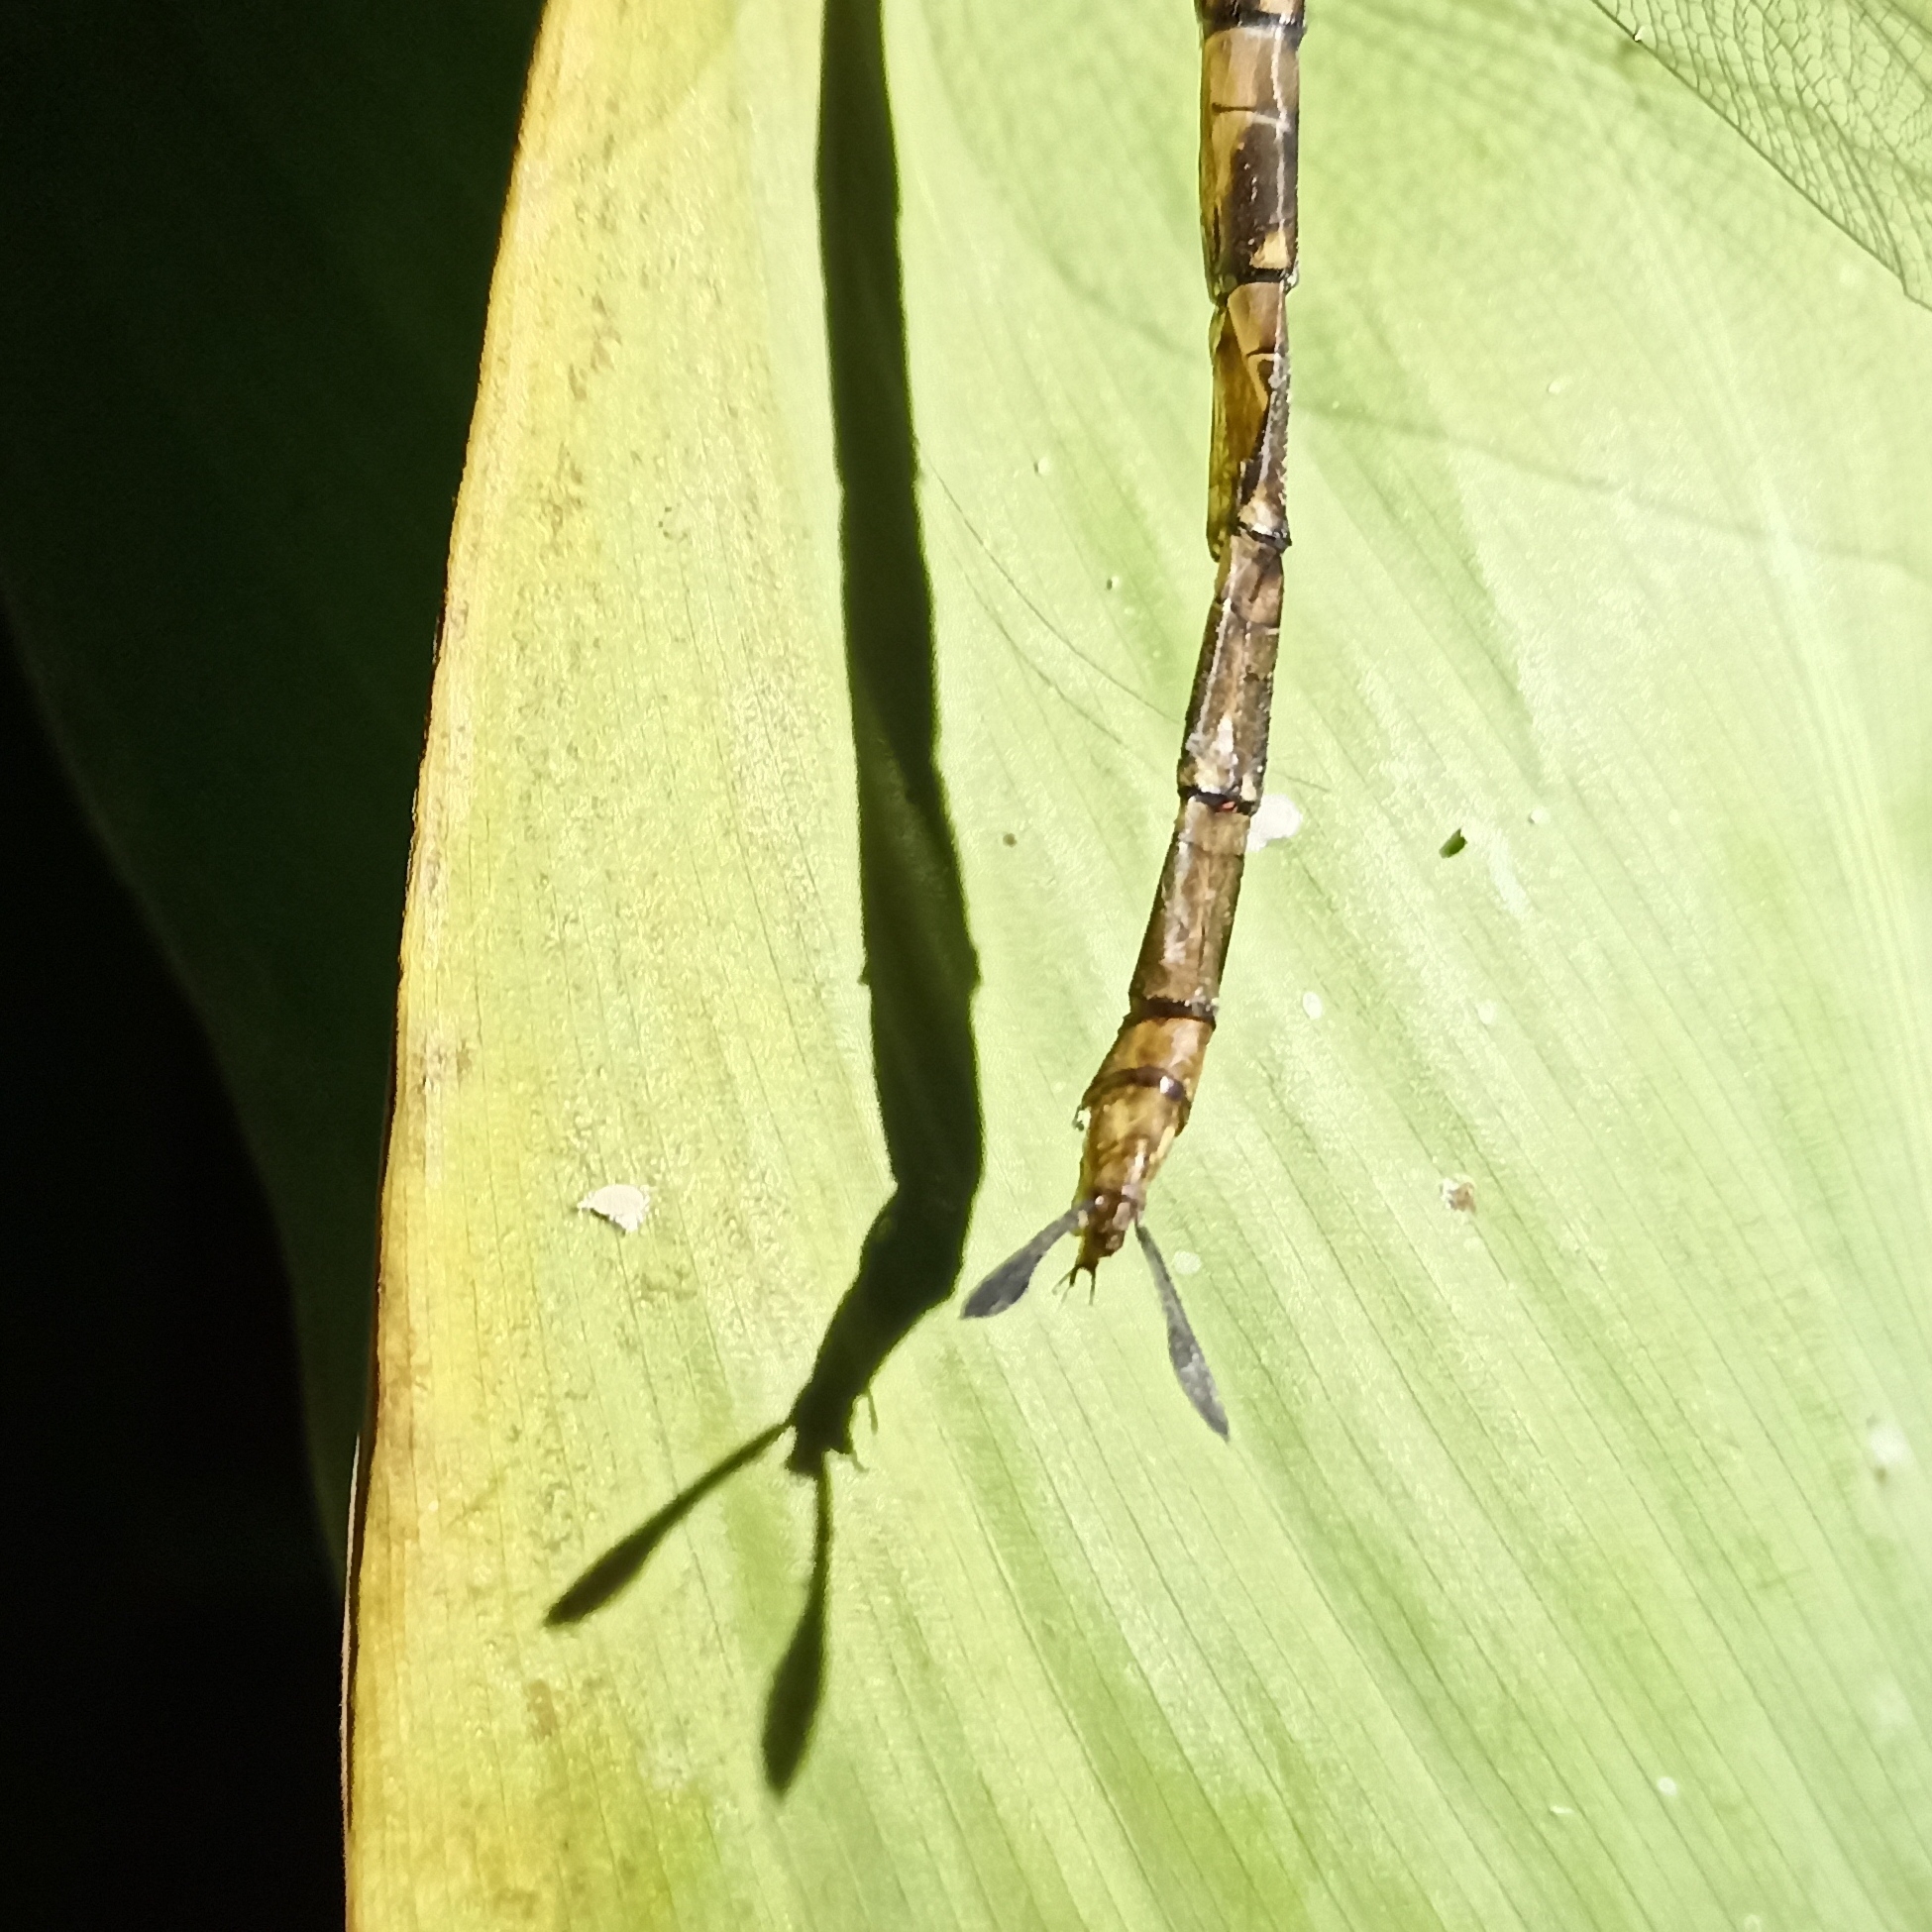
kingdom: Animalia
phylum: Arthropoda
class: Insecta
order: Odonata
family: Aeshnidae
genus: Gynacantha
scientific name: Gynacantha dravida
